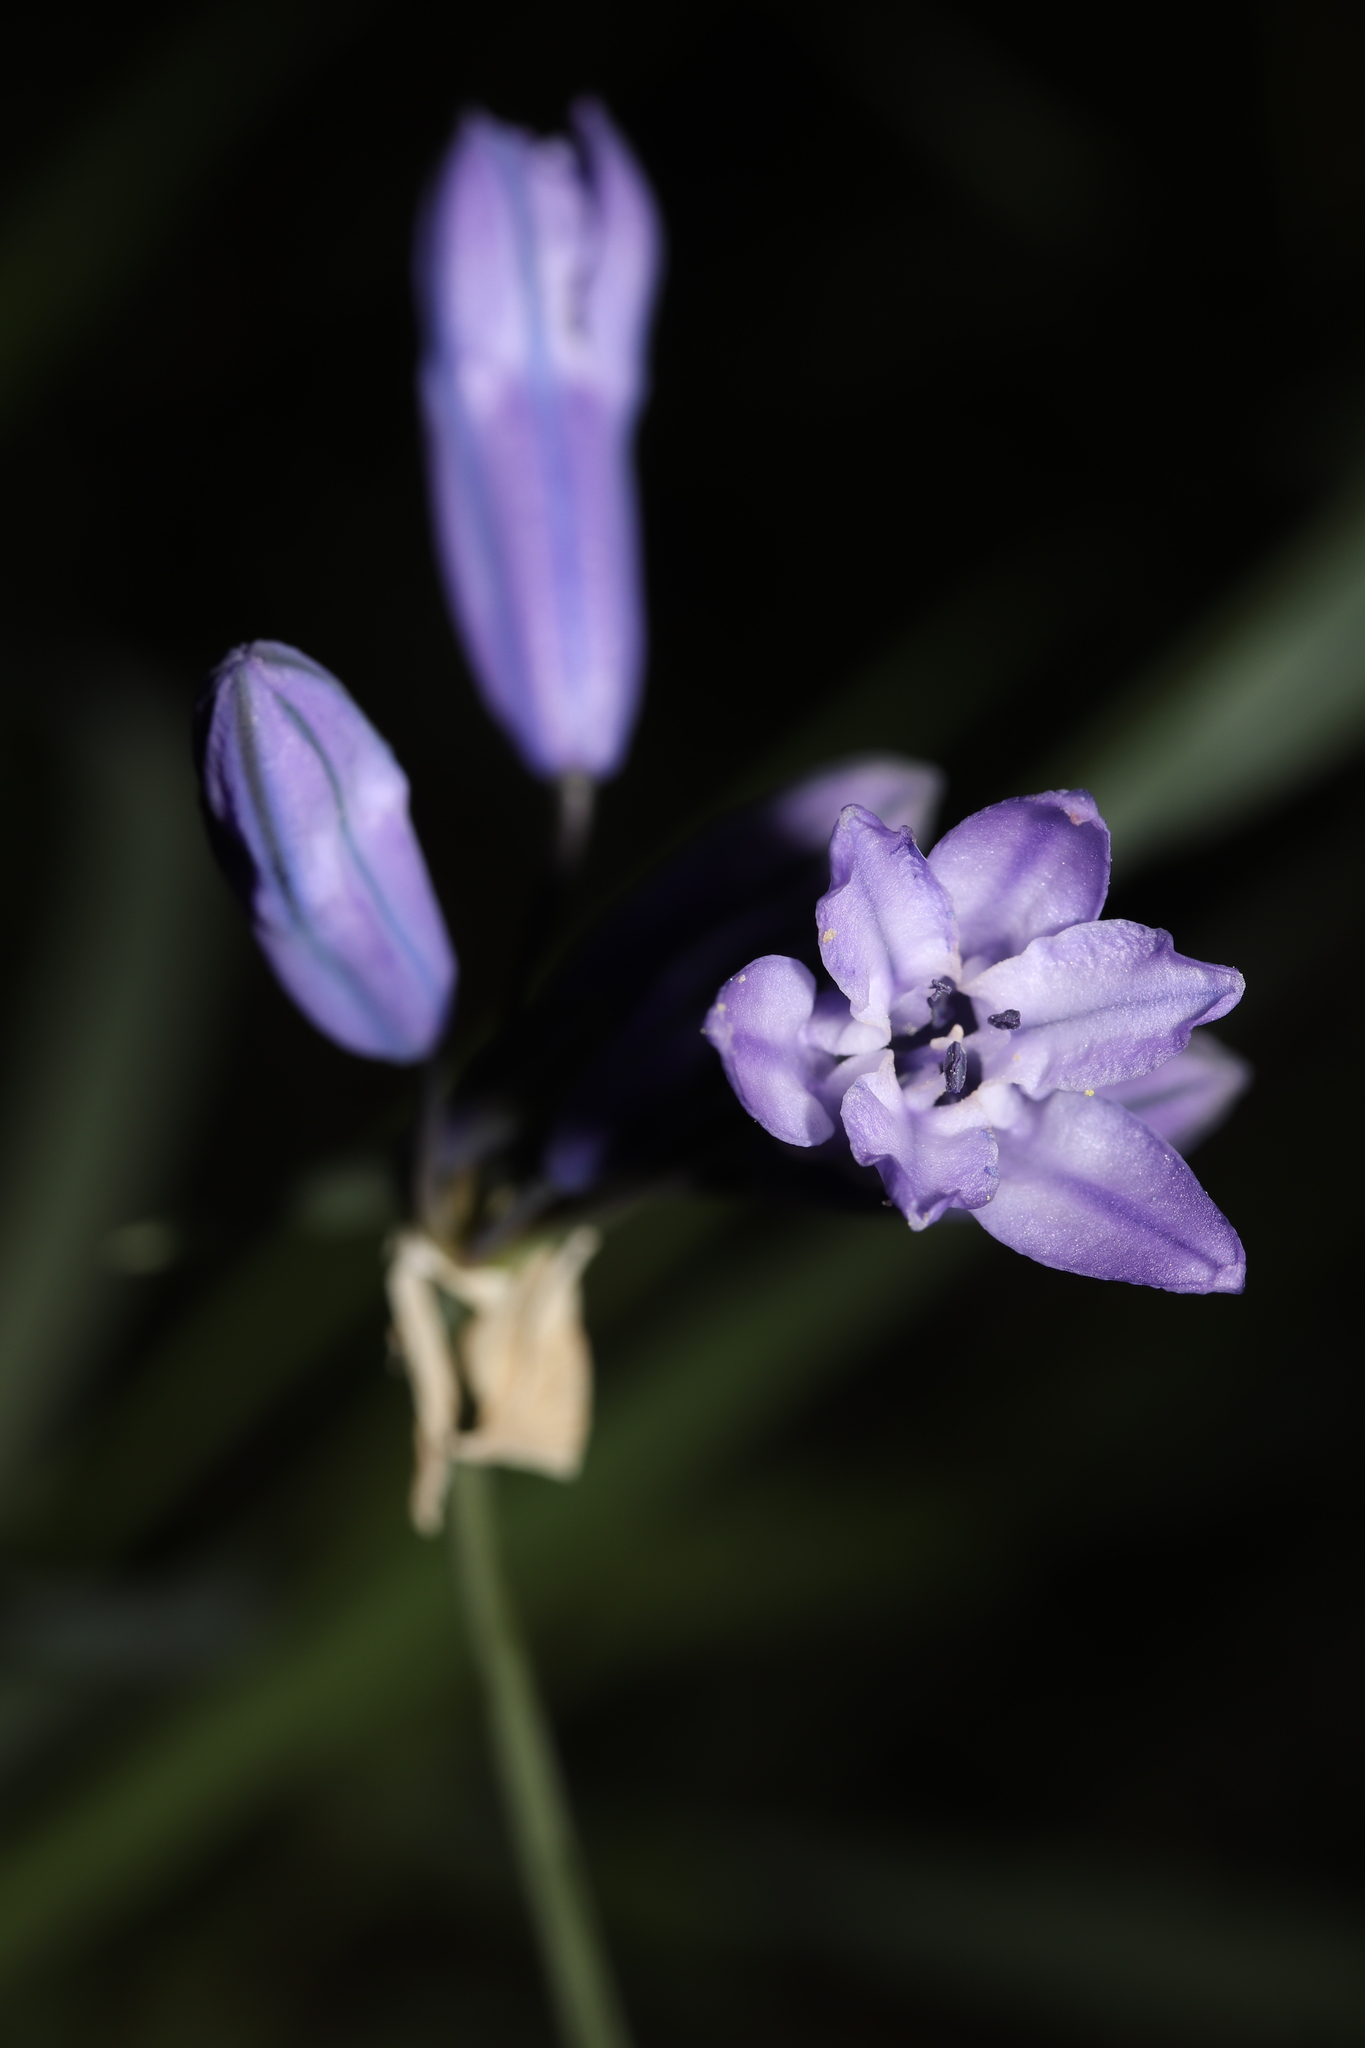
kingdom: Plantae
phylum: Tracheophyta
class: Liliopsida
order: Asparagales
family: Asparagaceae
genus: Triteleia
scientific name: Triteleia grandiflora
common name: Wild hyacinth
